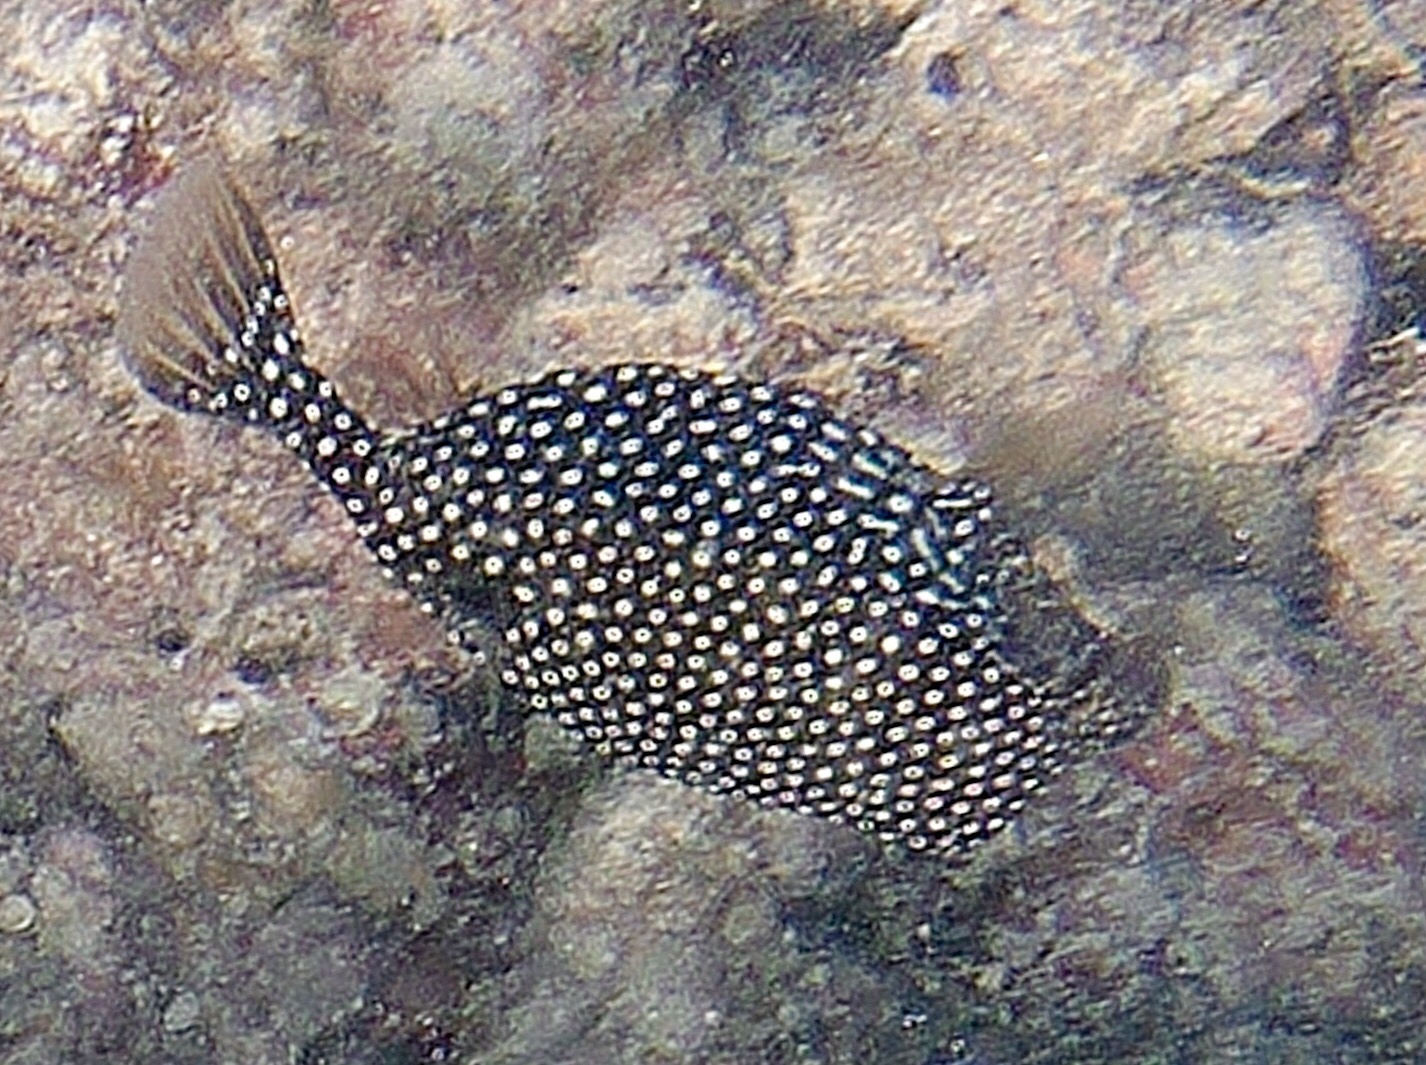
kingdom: Animalia
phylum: Chordata
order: Tetraodontiformes
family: Ostraciidae
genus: Ostracion
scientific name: Ostracion meleagris
